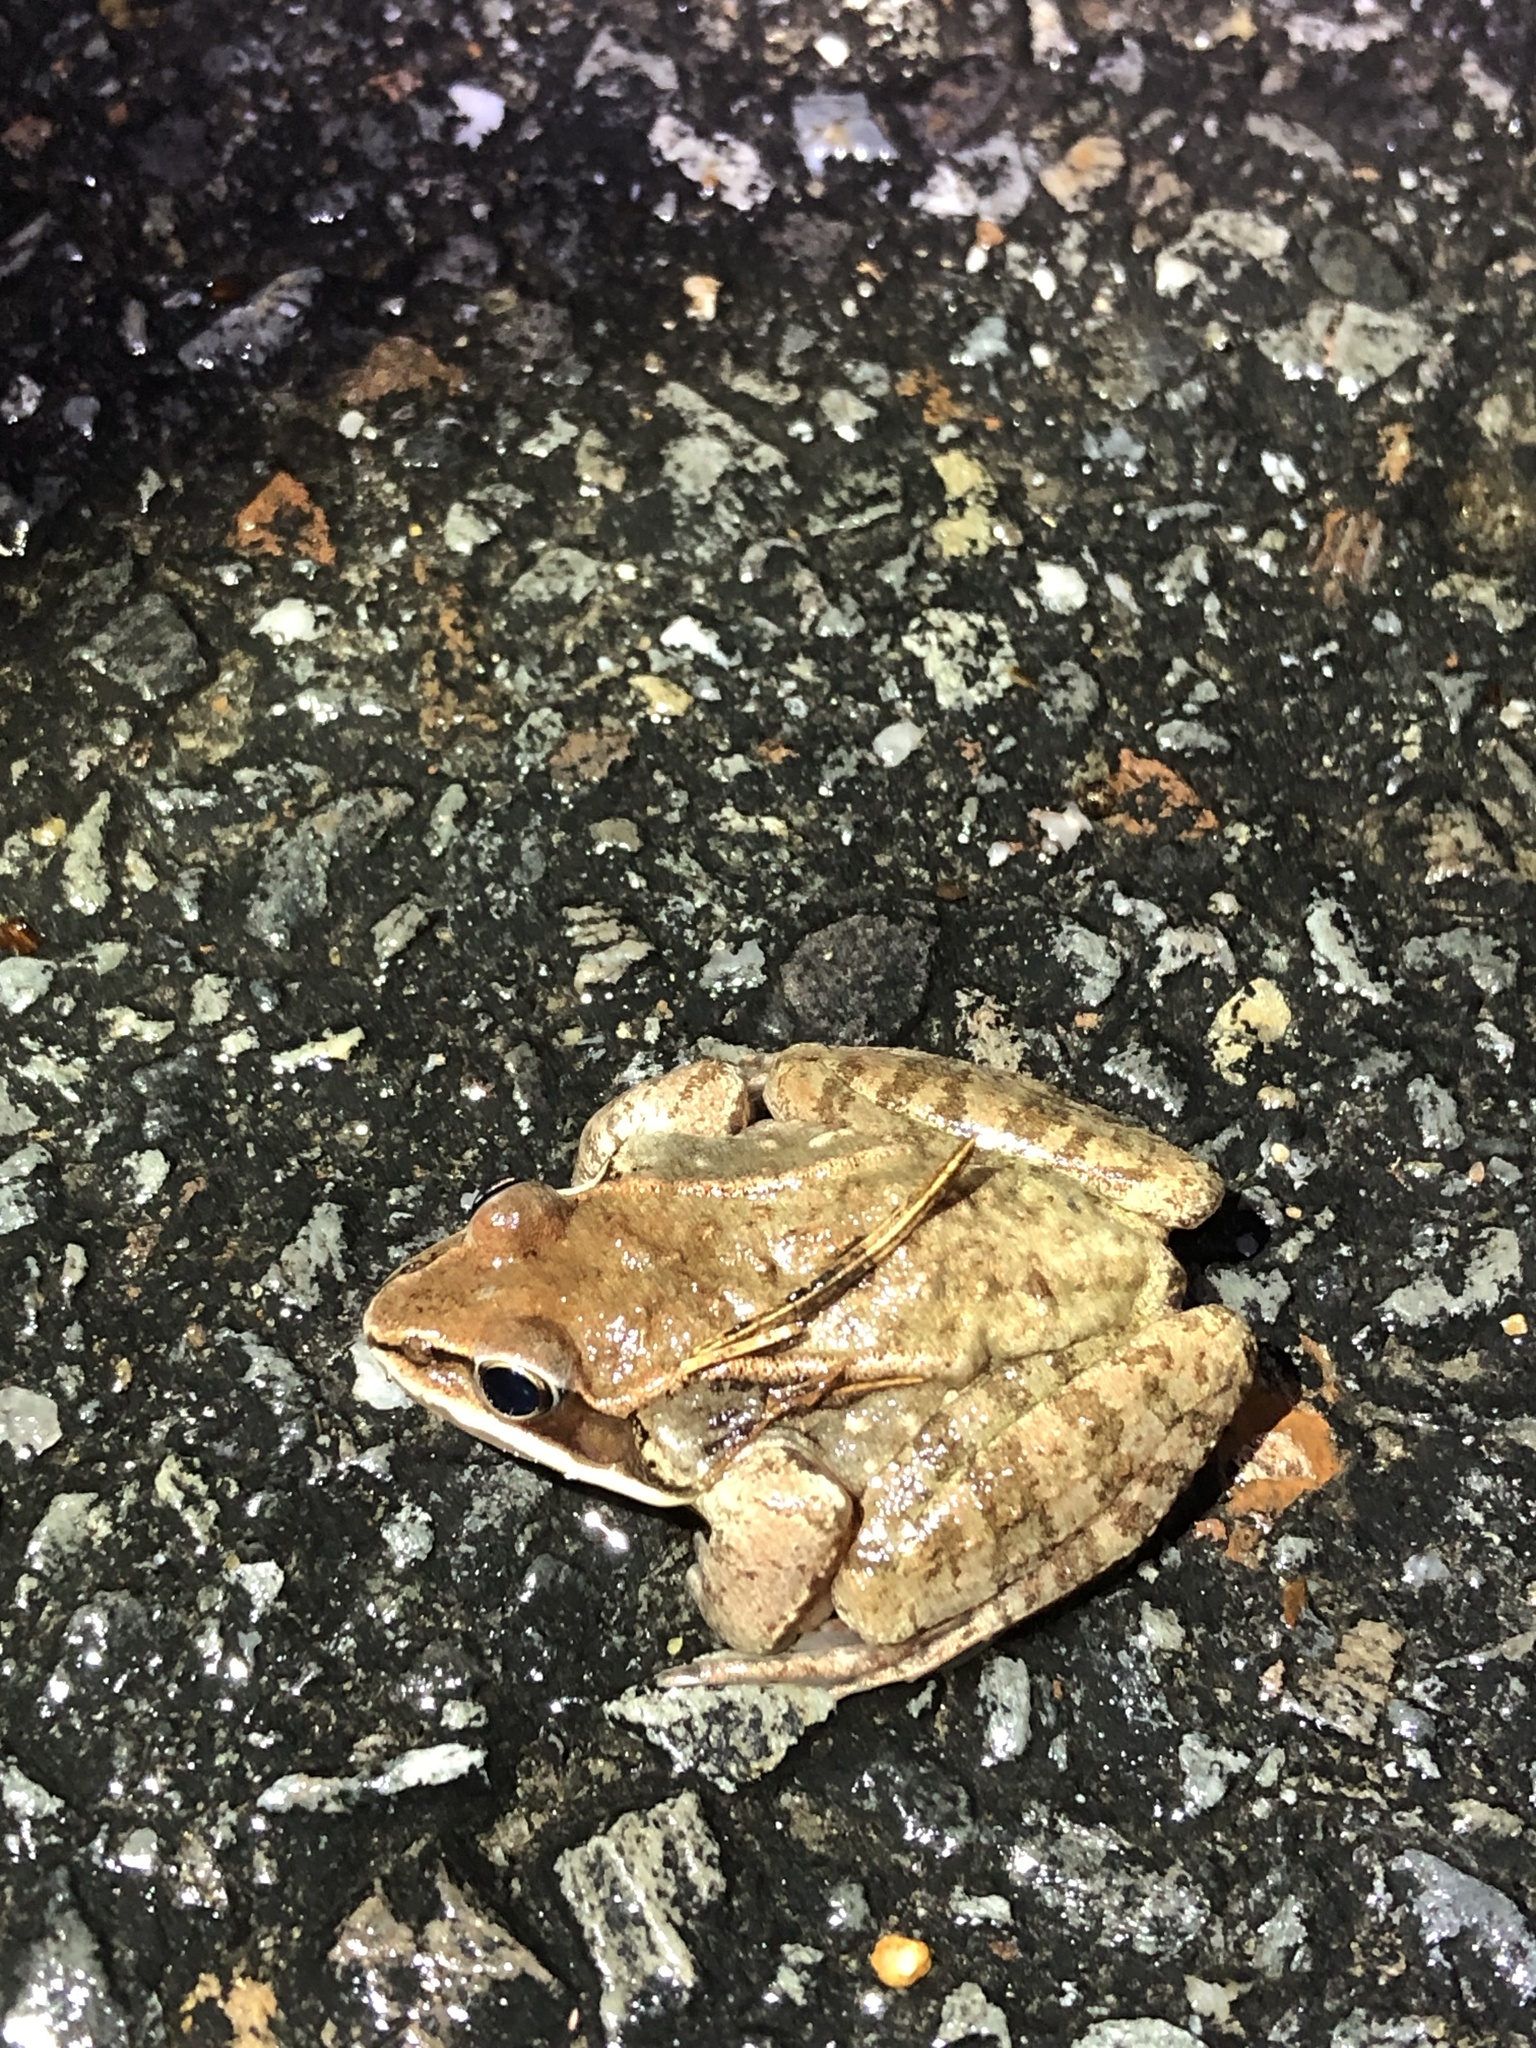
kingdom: Animalia
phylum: Chordata
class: Amphibia
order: Anura
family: Ranidae
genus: Lithobates
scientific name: Lithobates sylvaticus
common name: Wood frog
